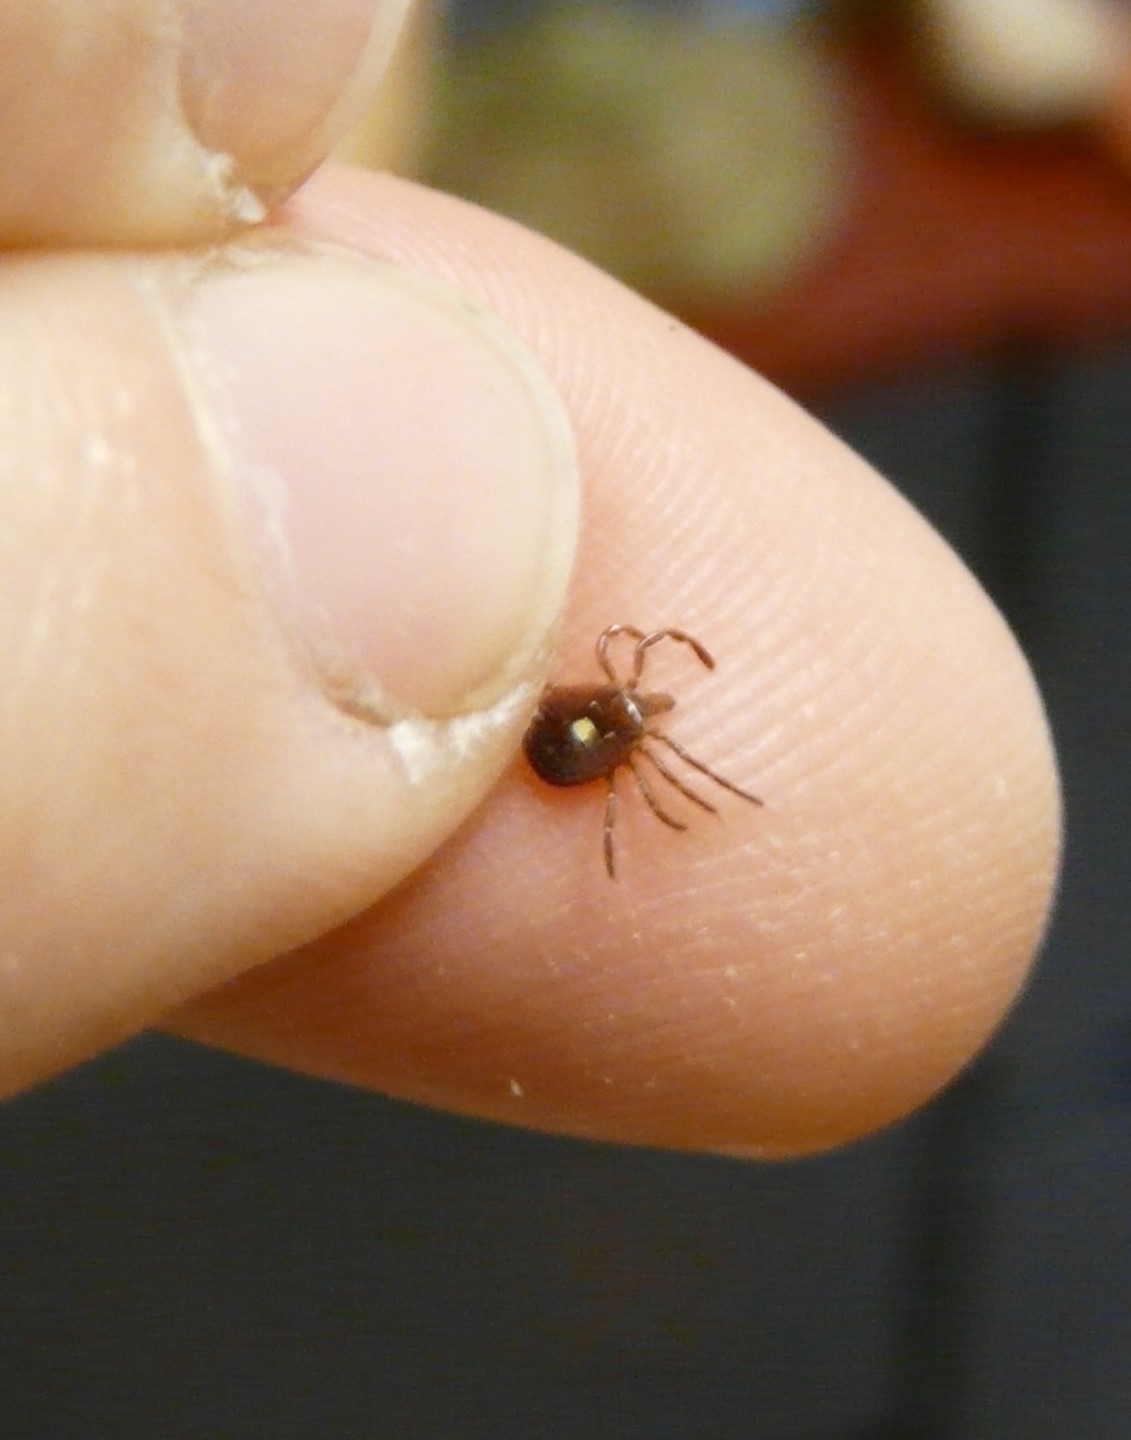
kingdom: Animalia
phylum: Arthropoda
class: Arachnida
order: Ixodida
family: Ixodidae
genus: Amblyomma
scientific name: Amblyomma americanum
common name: Lone star tick
